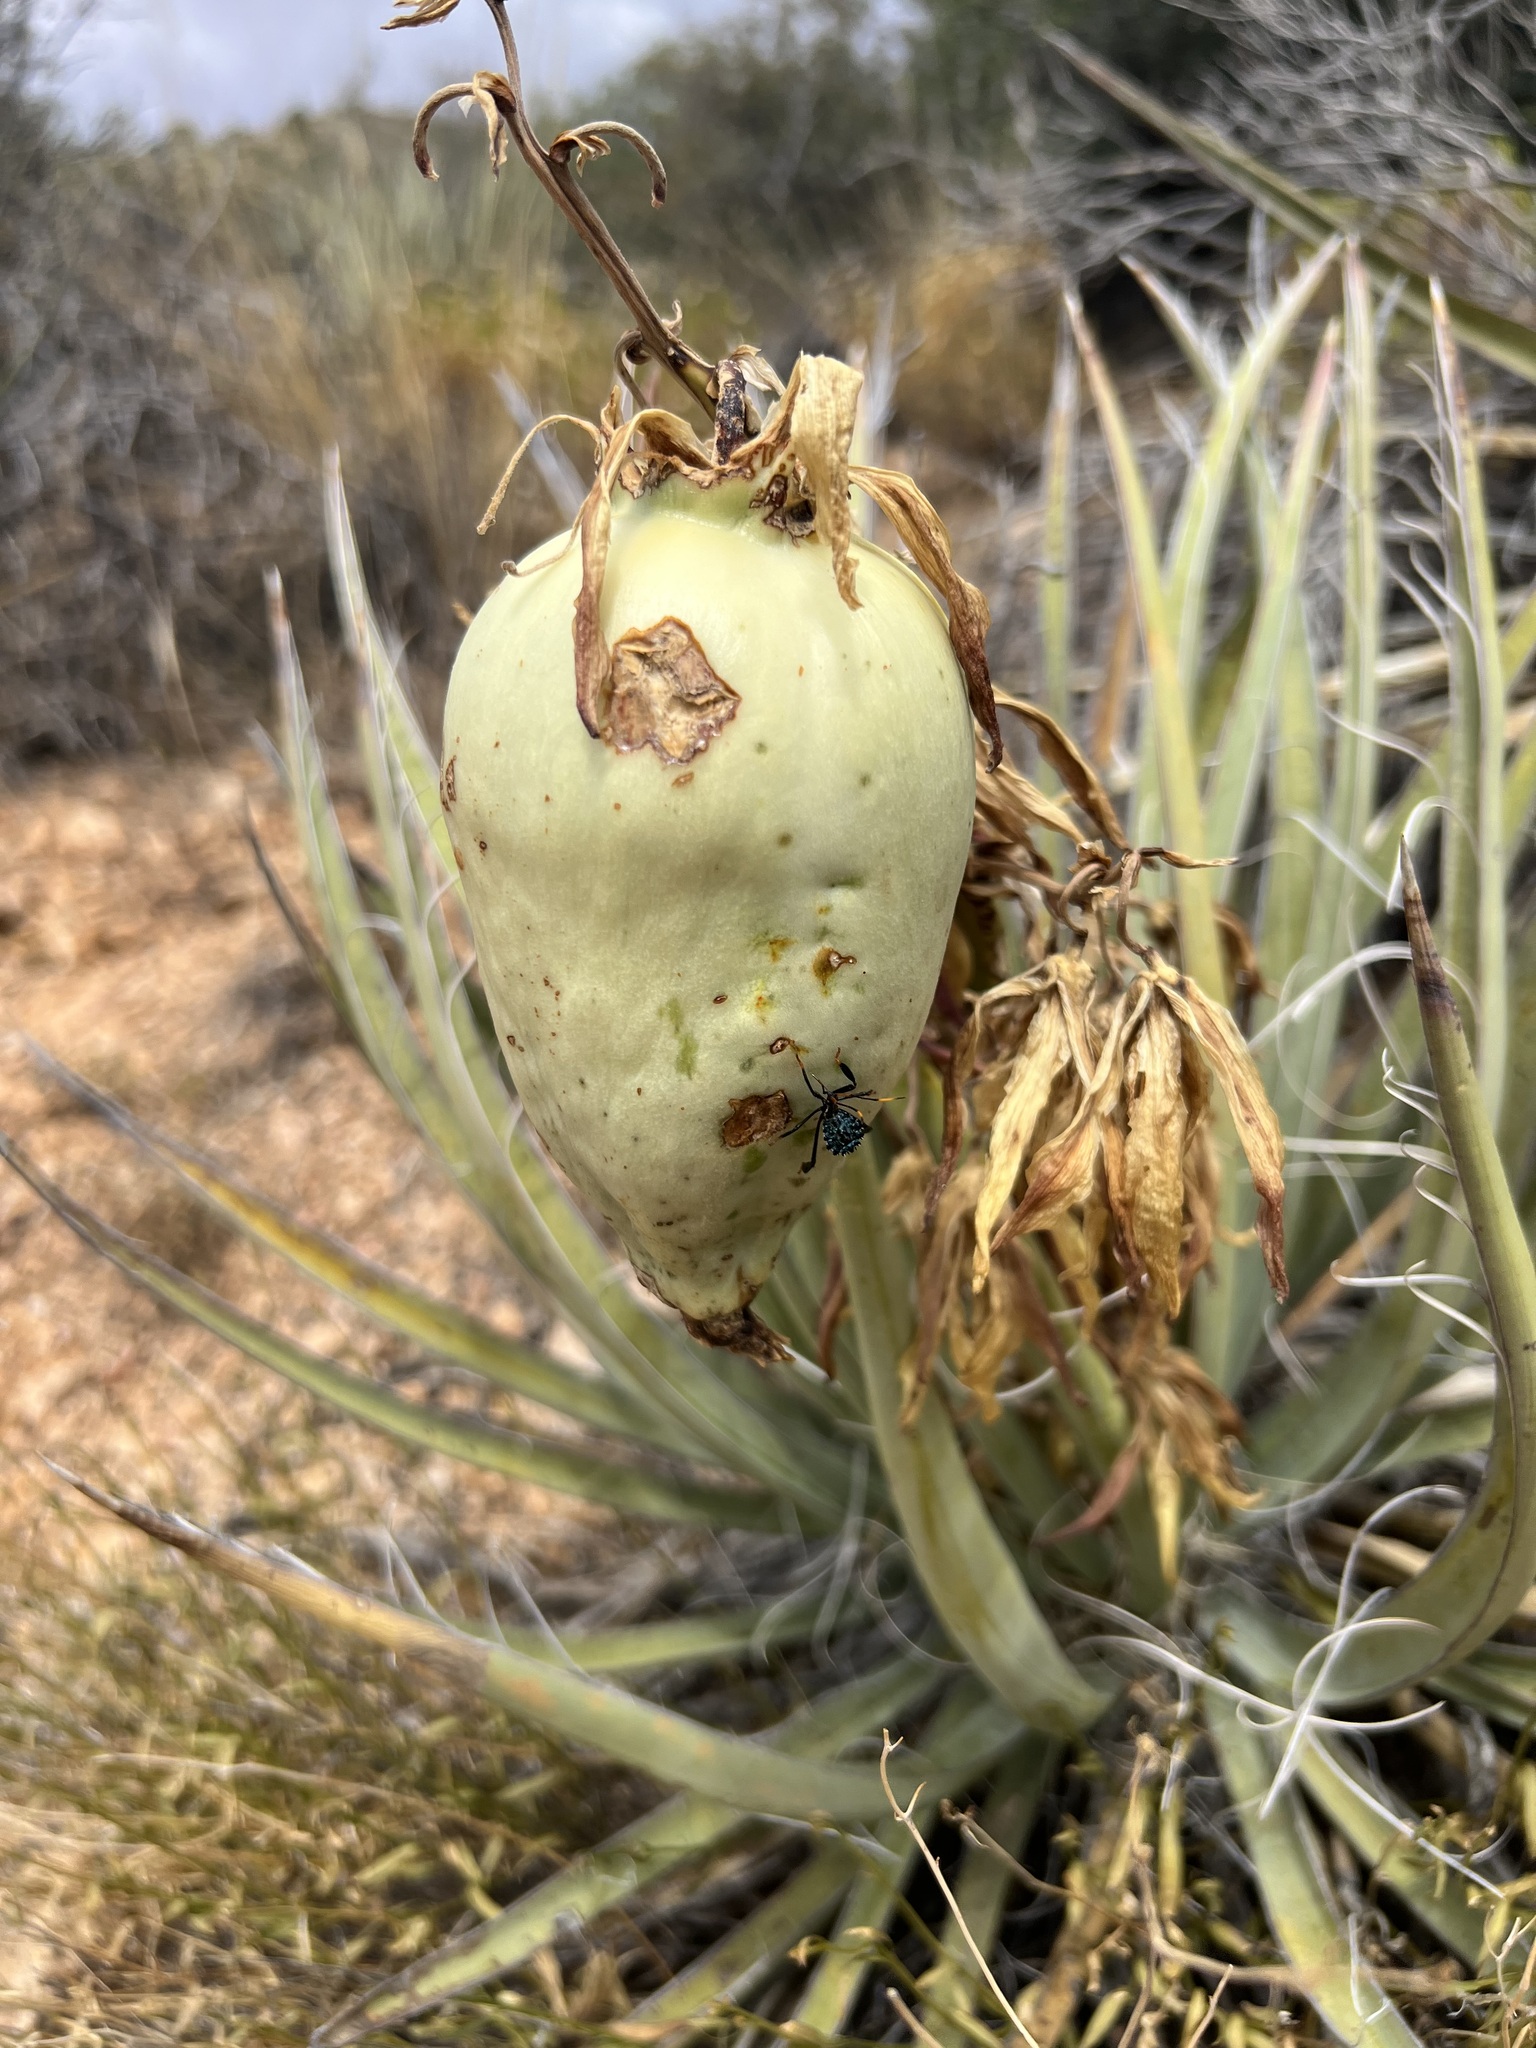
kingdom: Plantae
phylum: Tracheophyta
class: Liliopsida
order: Asparagales
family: Asparagaceae
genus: Yucca
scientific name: Yucca baccata
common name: Banana yucca
